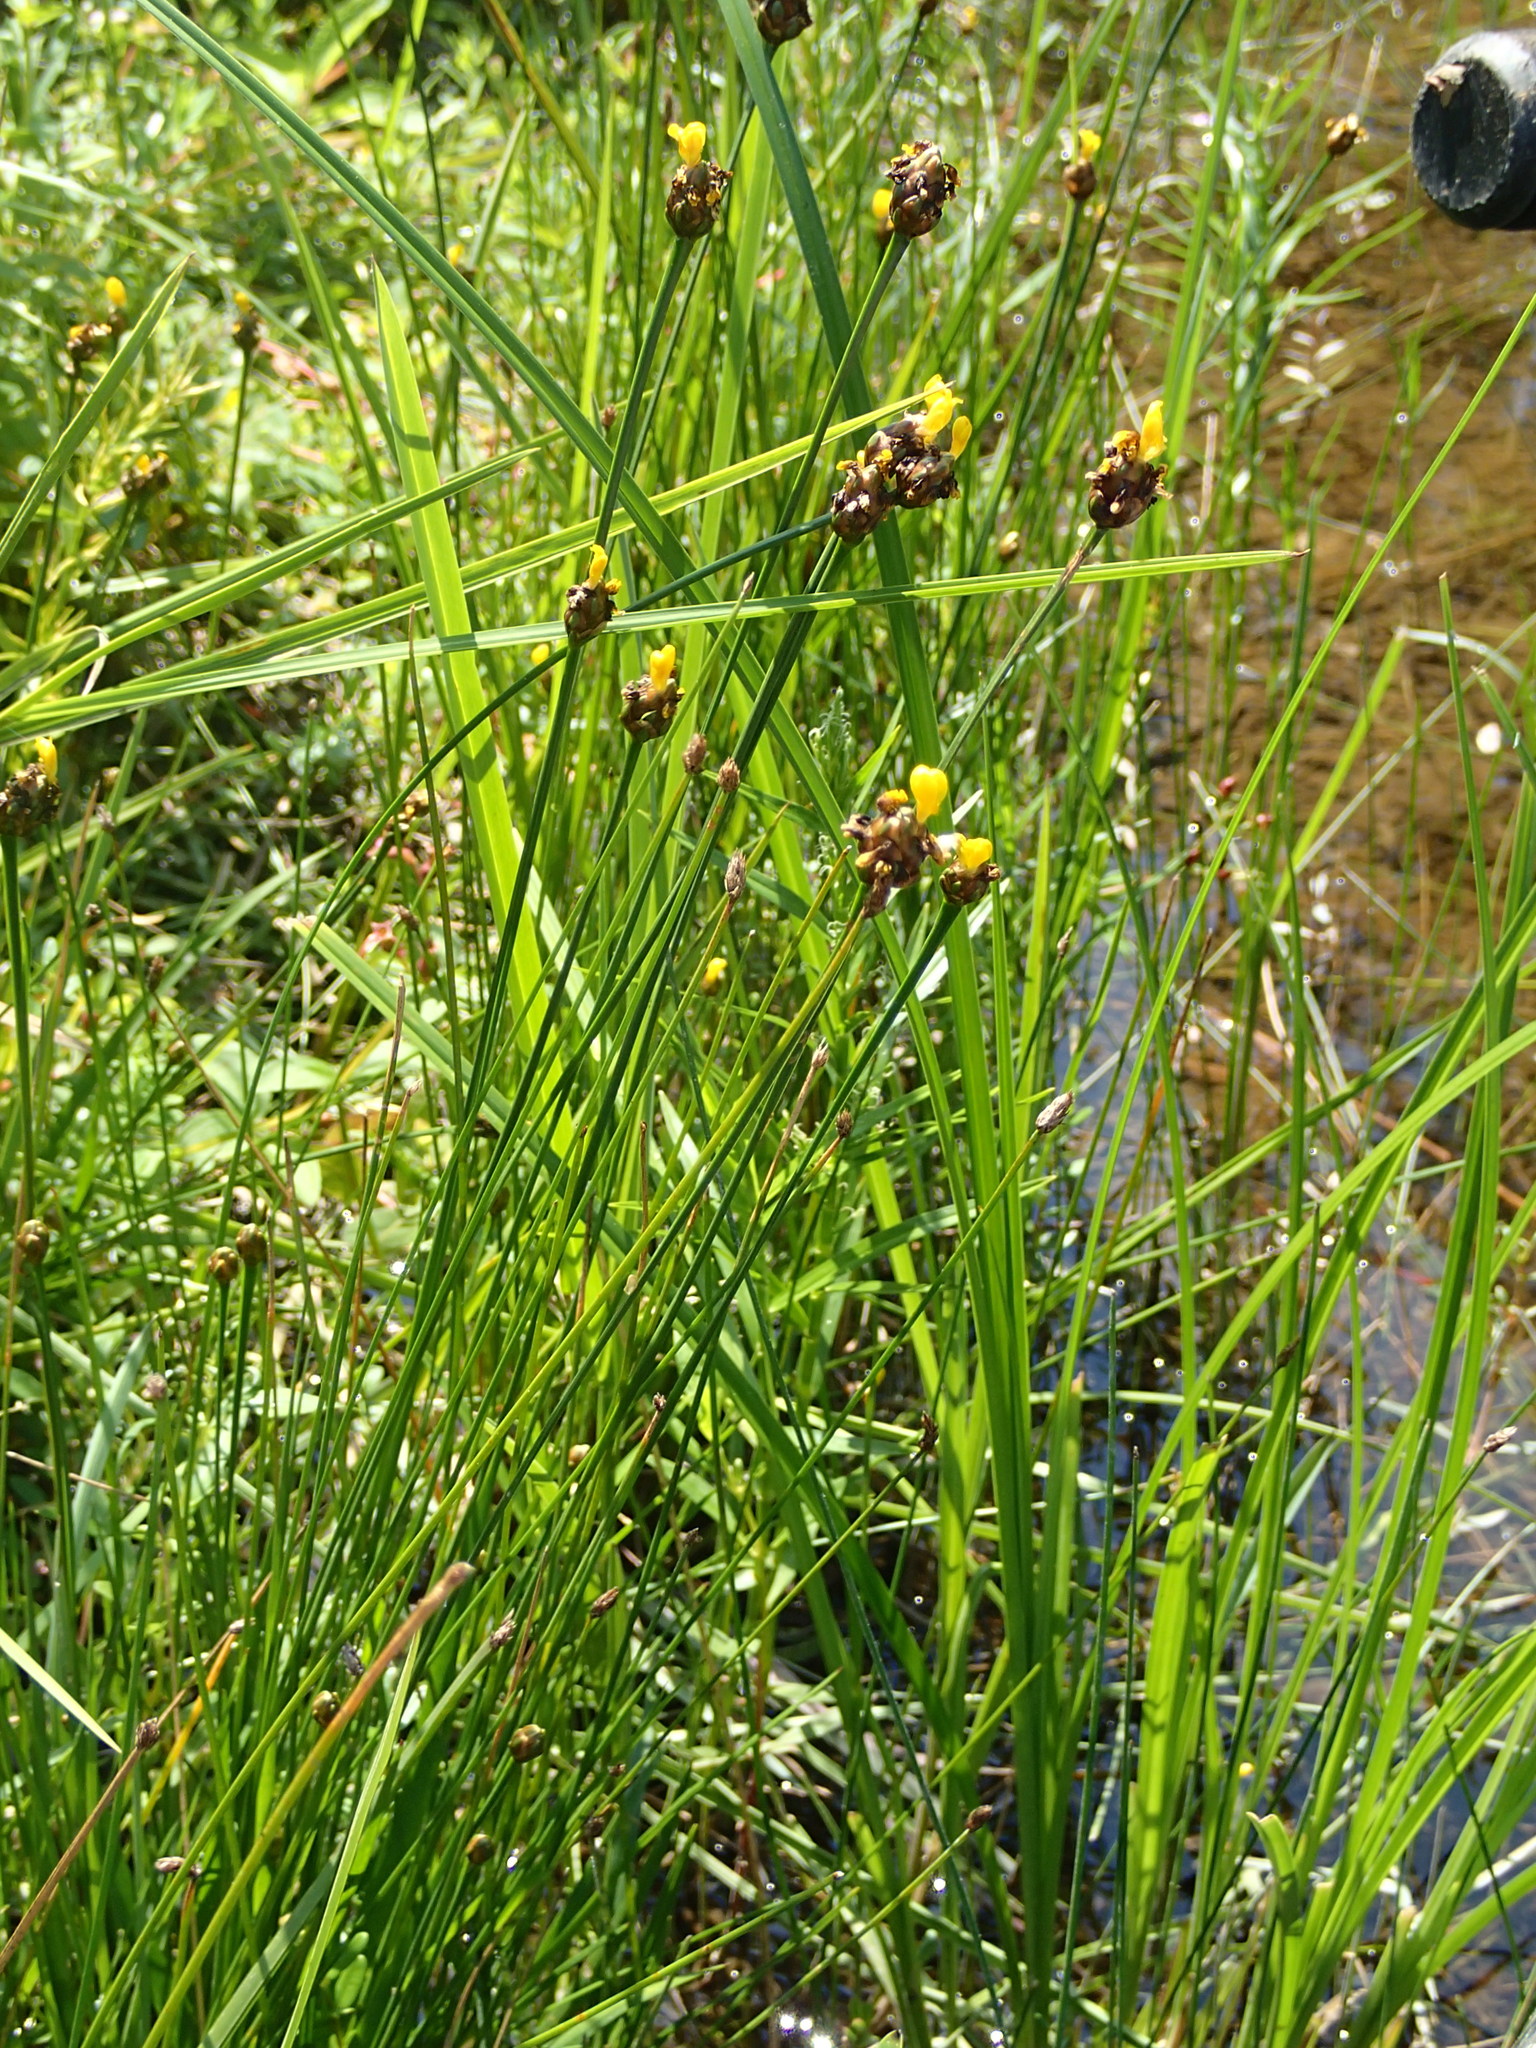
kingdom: Plantae
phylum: Tracheophyta
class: Liliopsida
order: Poales
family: Xyridaceae
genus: Xyris
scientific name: Xyris difformis
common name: Bog yellow-eyed-grass
